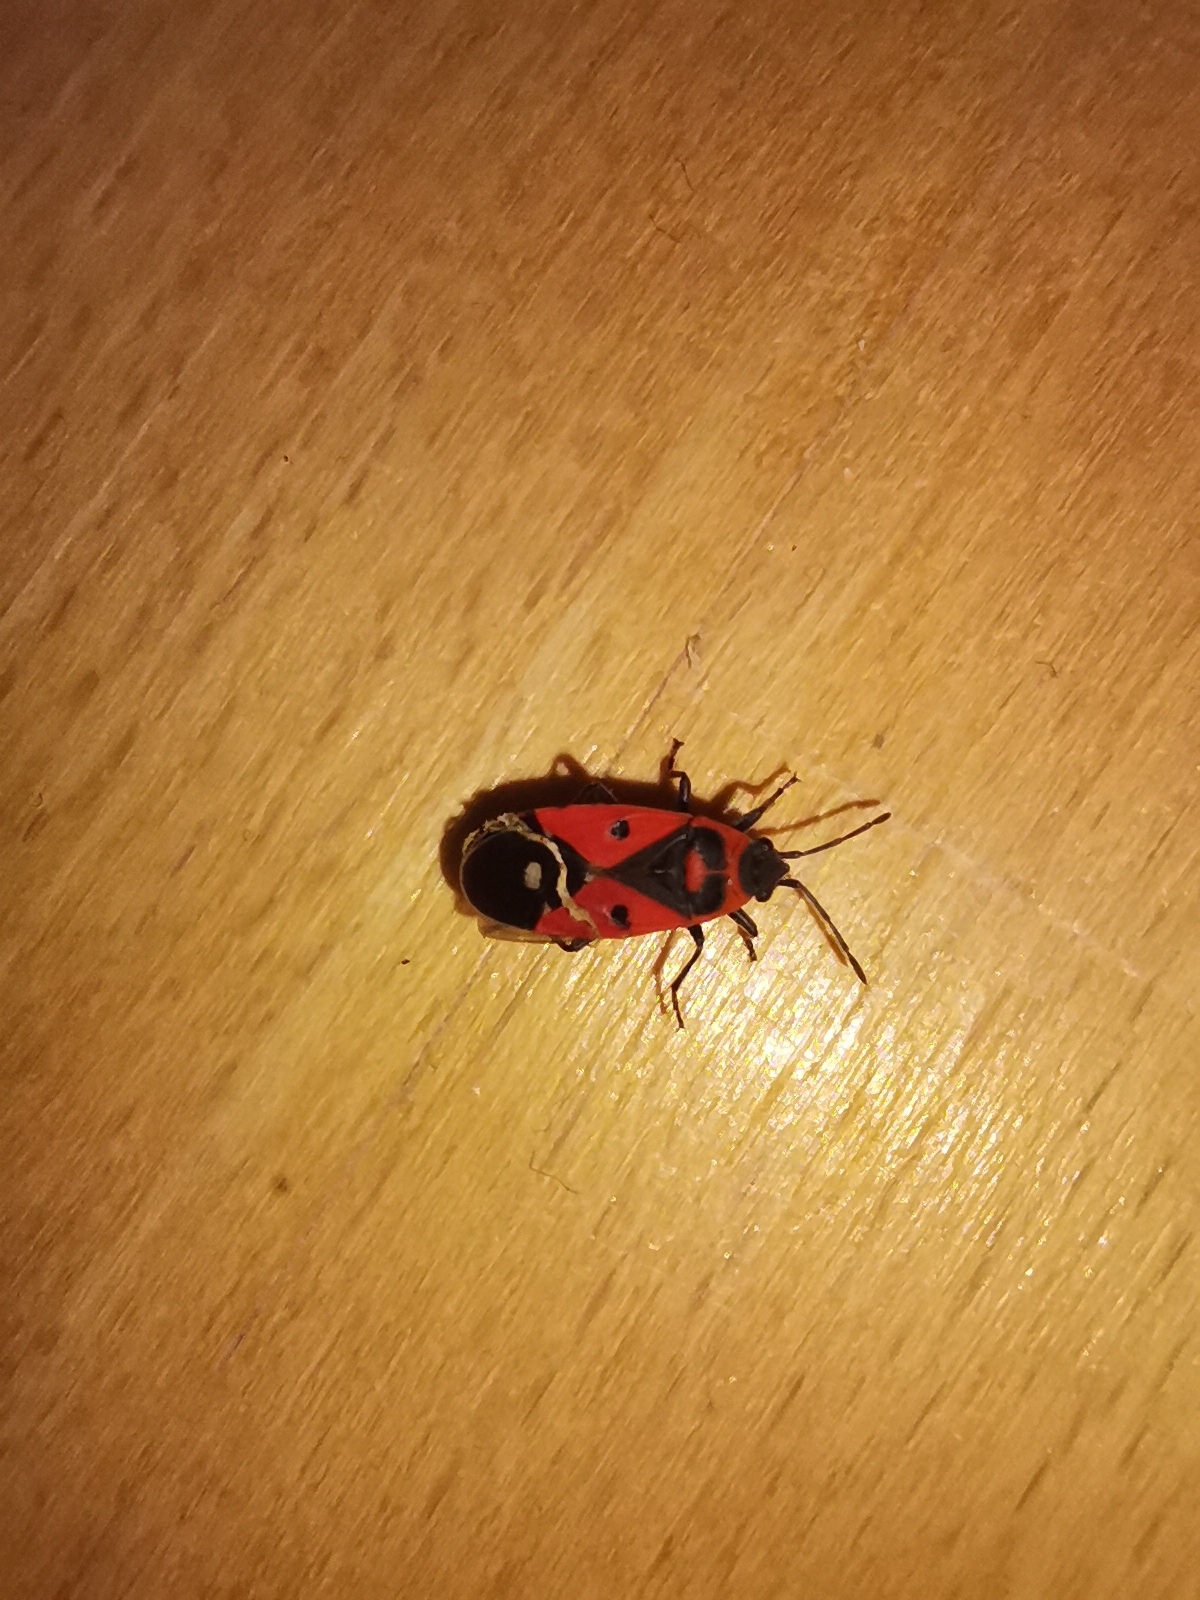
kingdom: Animalia
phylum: Arthropoda
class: Insecta
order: Hemiptera
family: Lygaeidae
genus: Melanocoryphus
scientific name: Melanocoryphus albomaculatus
